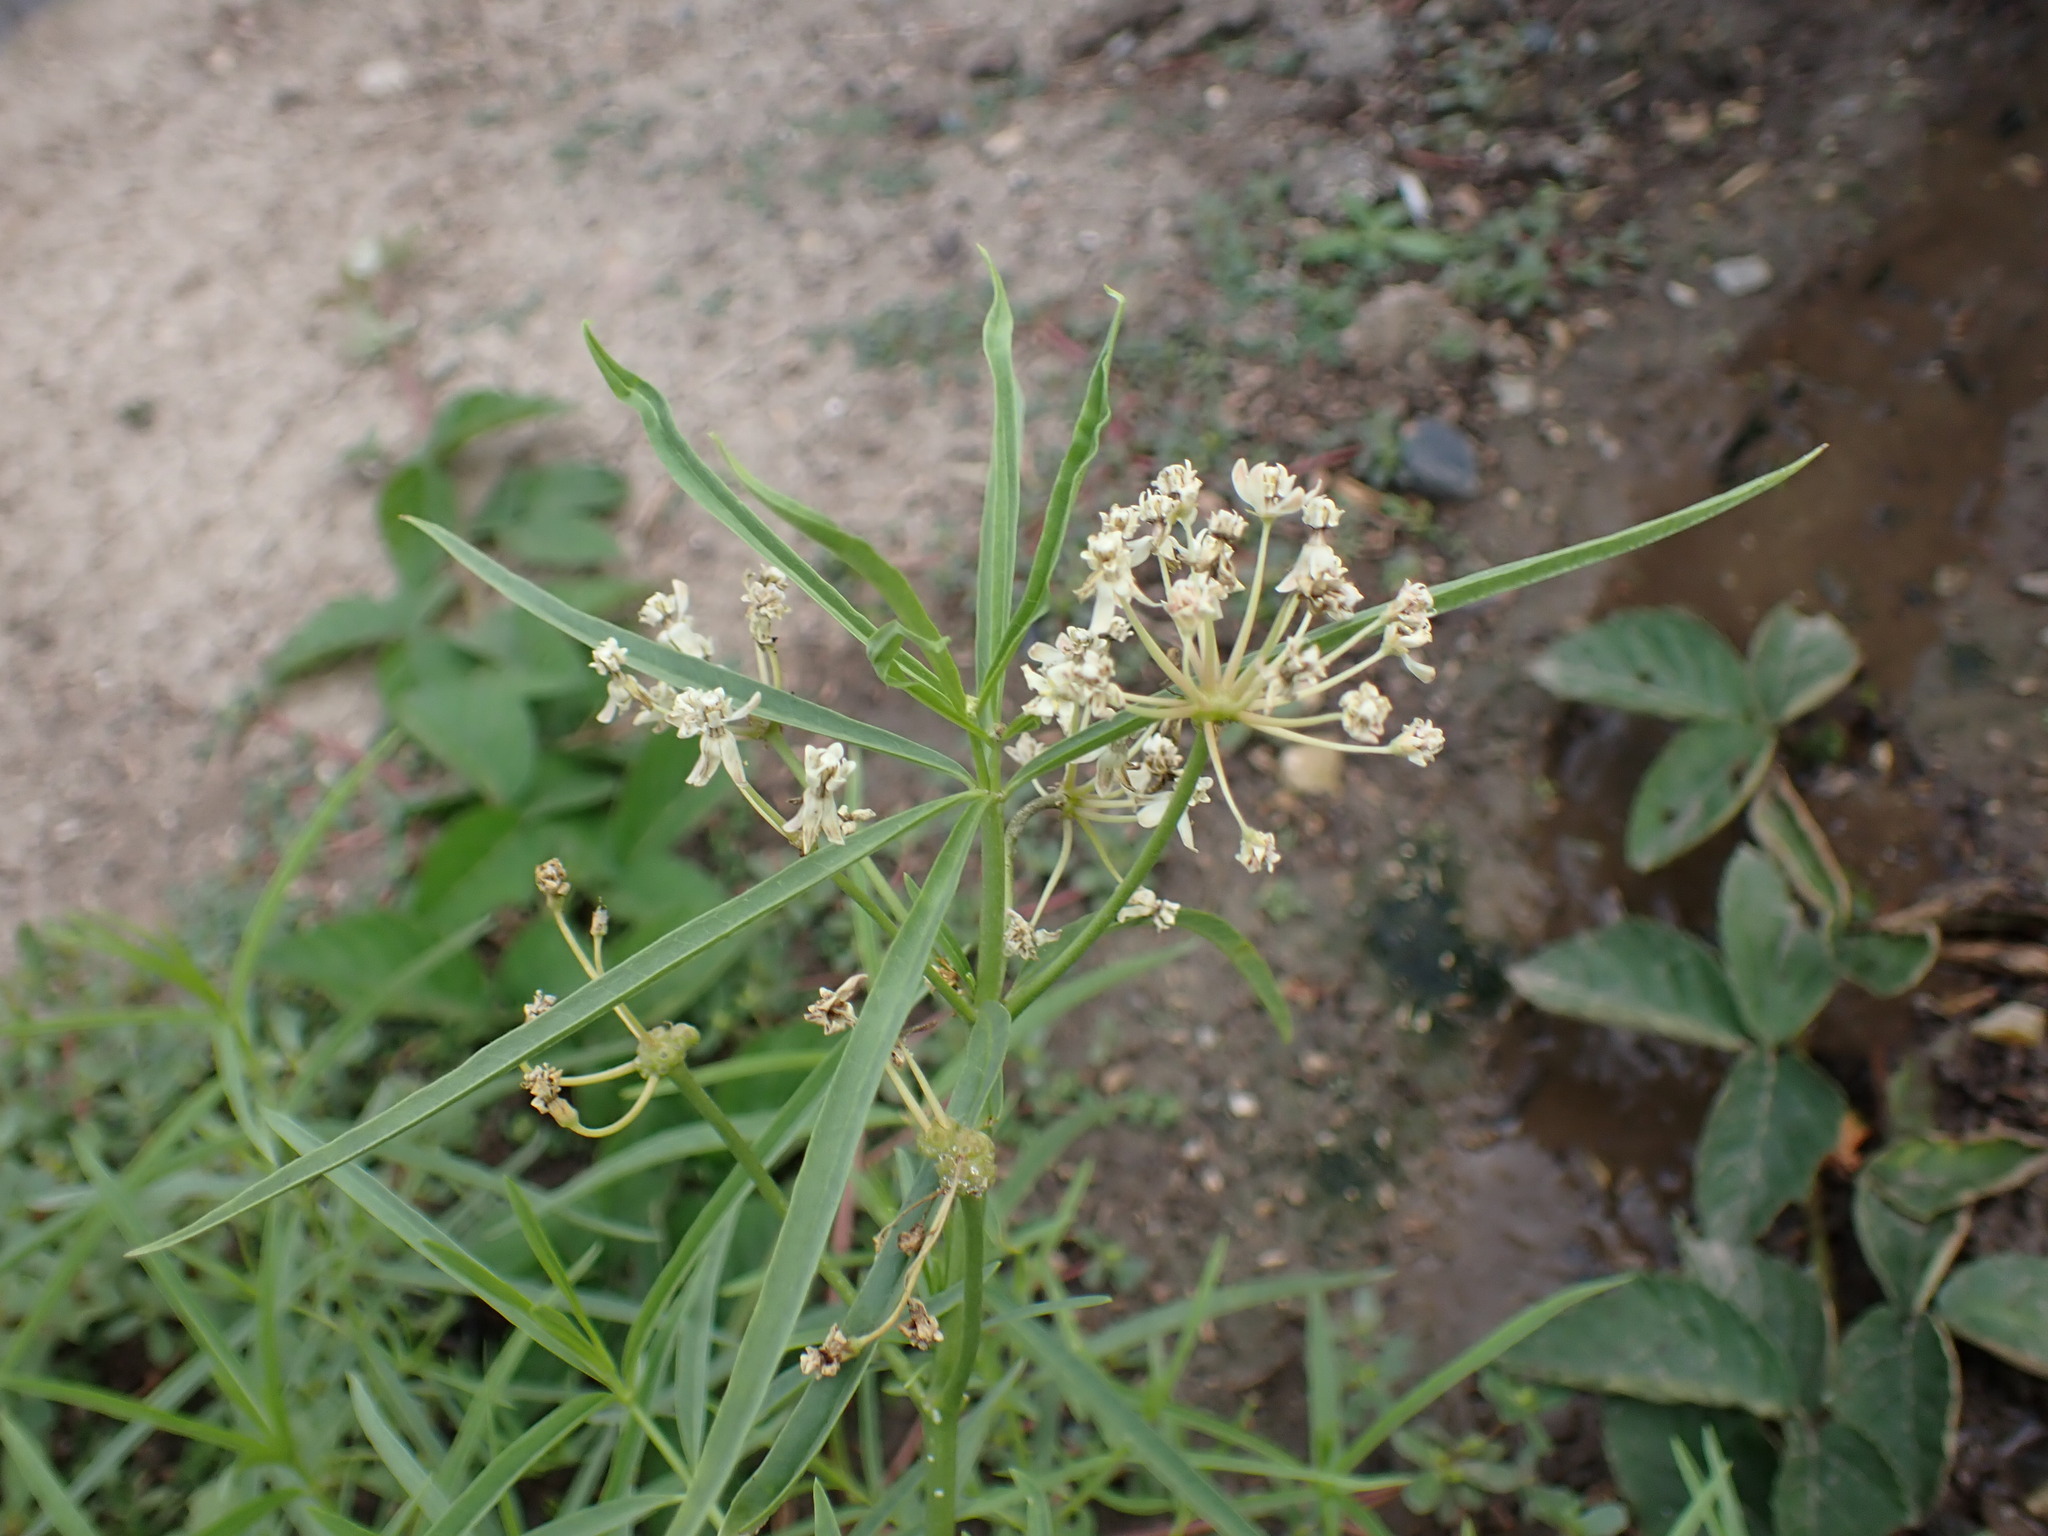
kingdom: Plantae
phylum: Tracheophyta
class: Magnoliopsida
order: Gentianales
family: Apocynaceae
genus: Asclepias
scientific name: Asclepias fascicularis
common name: Mexican milkweed
